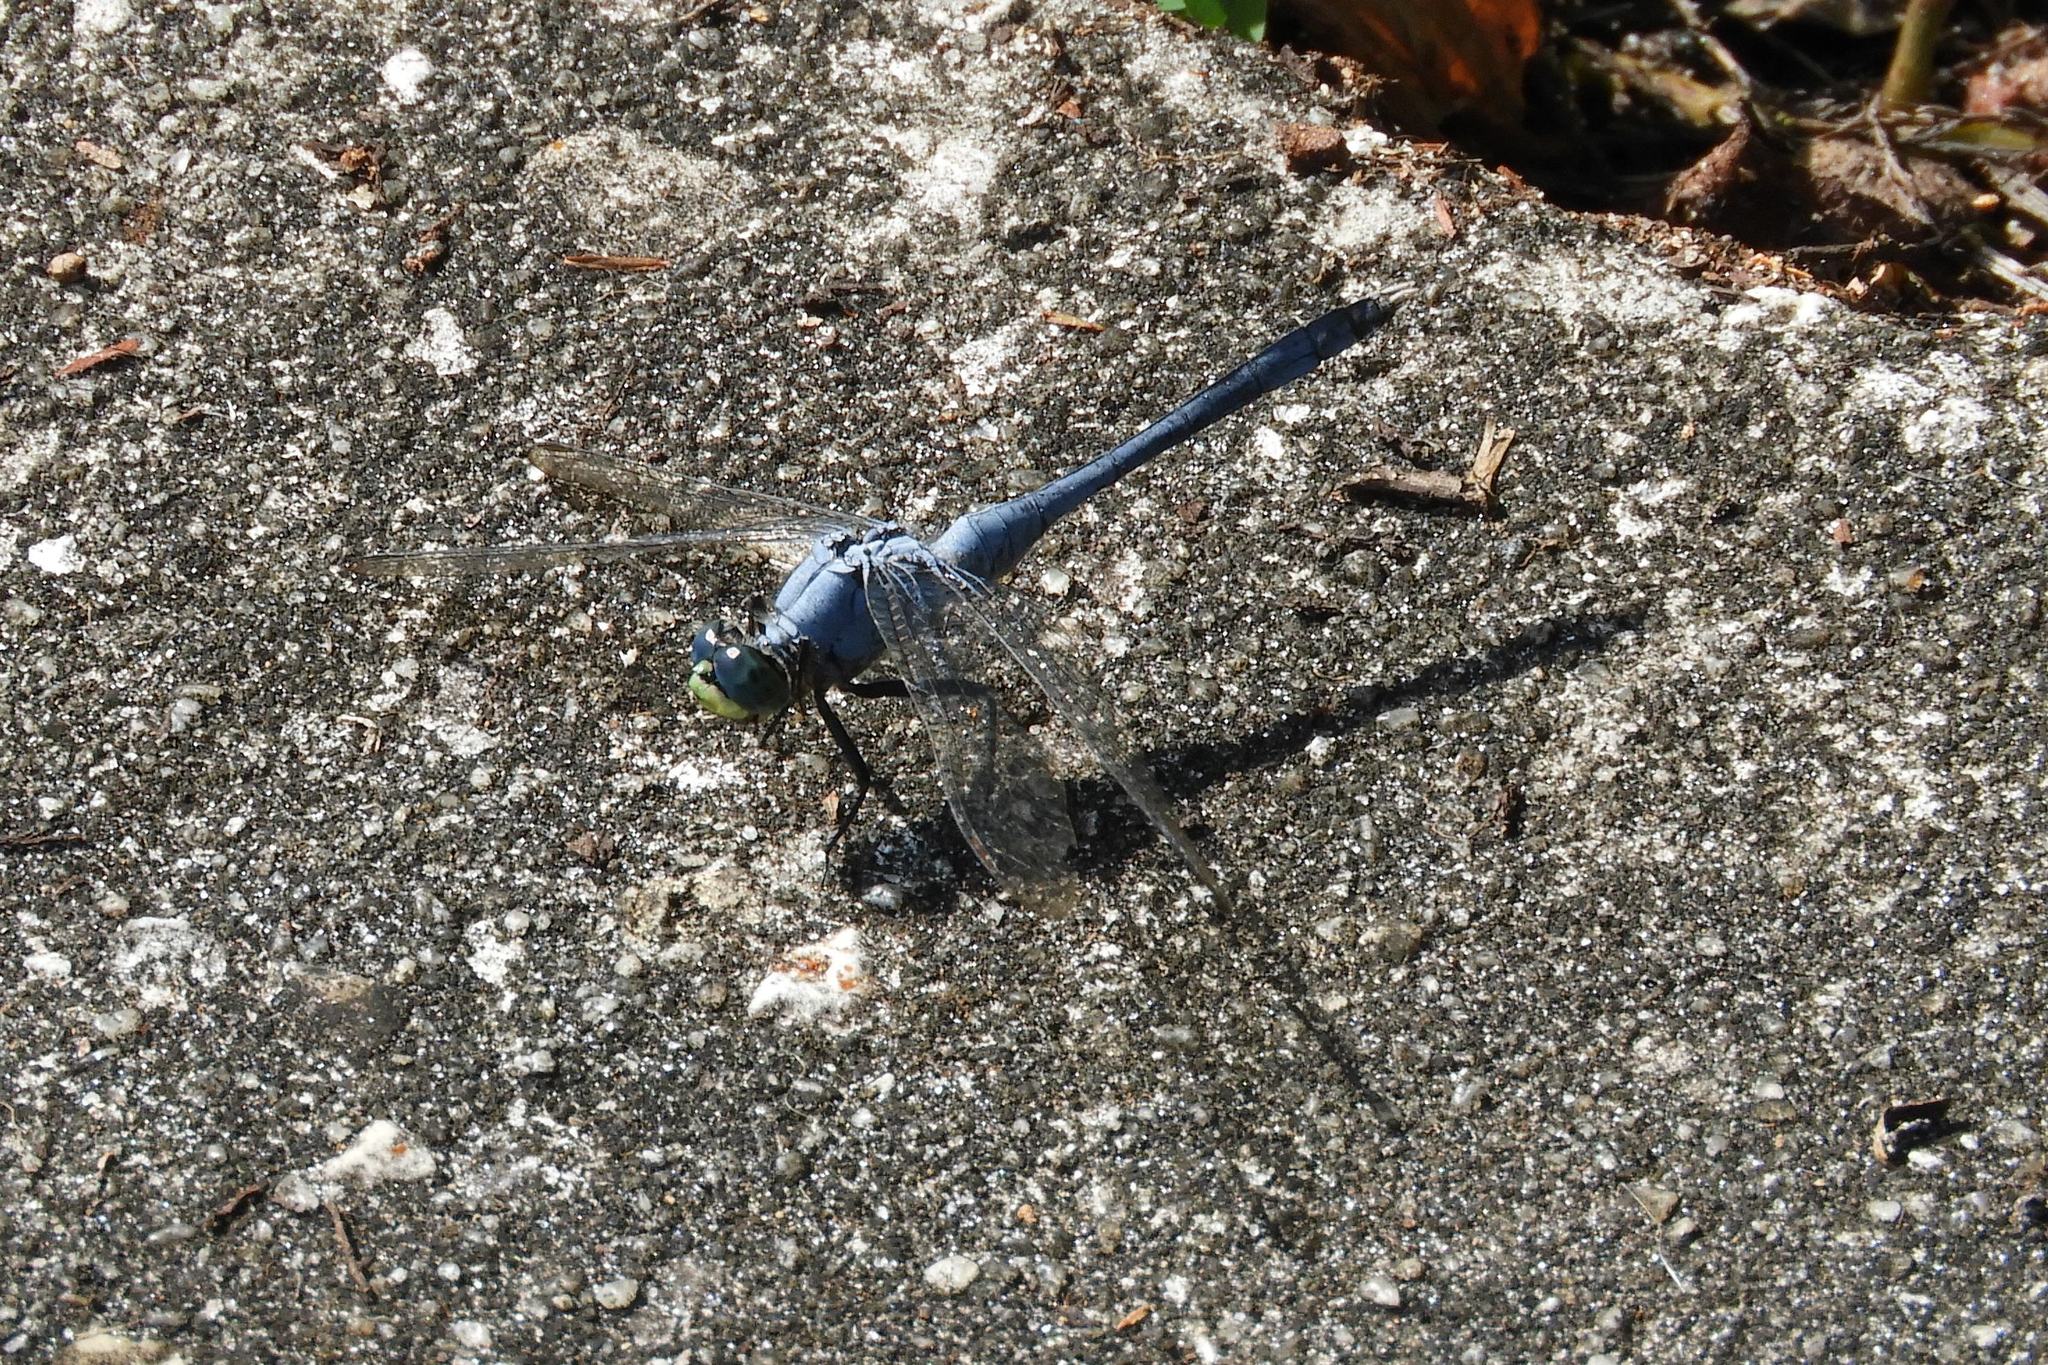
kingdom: Animalia
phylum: Arthropoda
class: Insecta
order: Odonata
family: Libellulidae
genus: Erythemis
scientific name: Erythemis simplicicollis
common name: Eastern pondhawk
